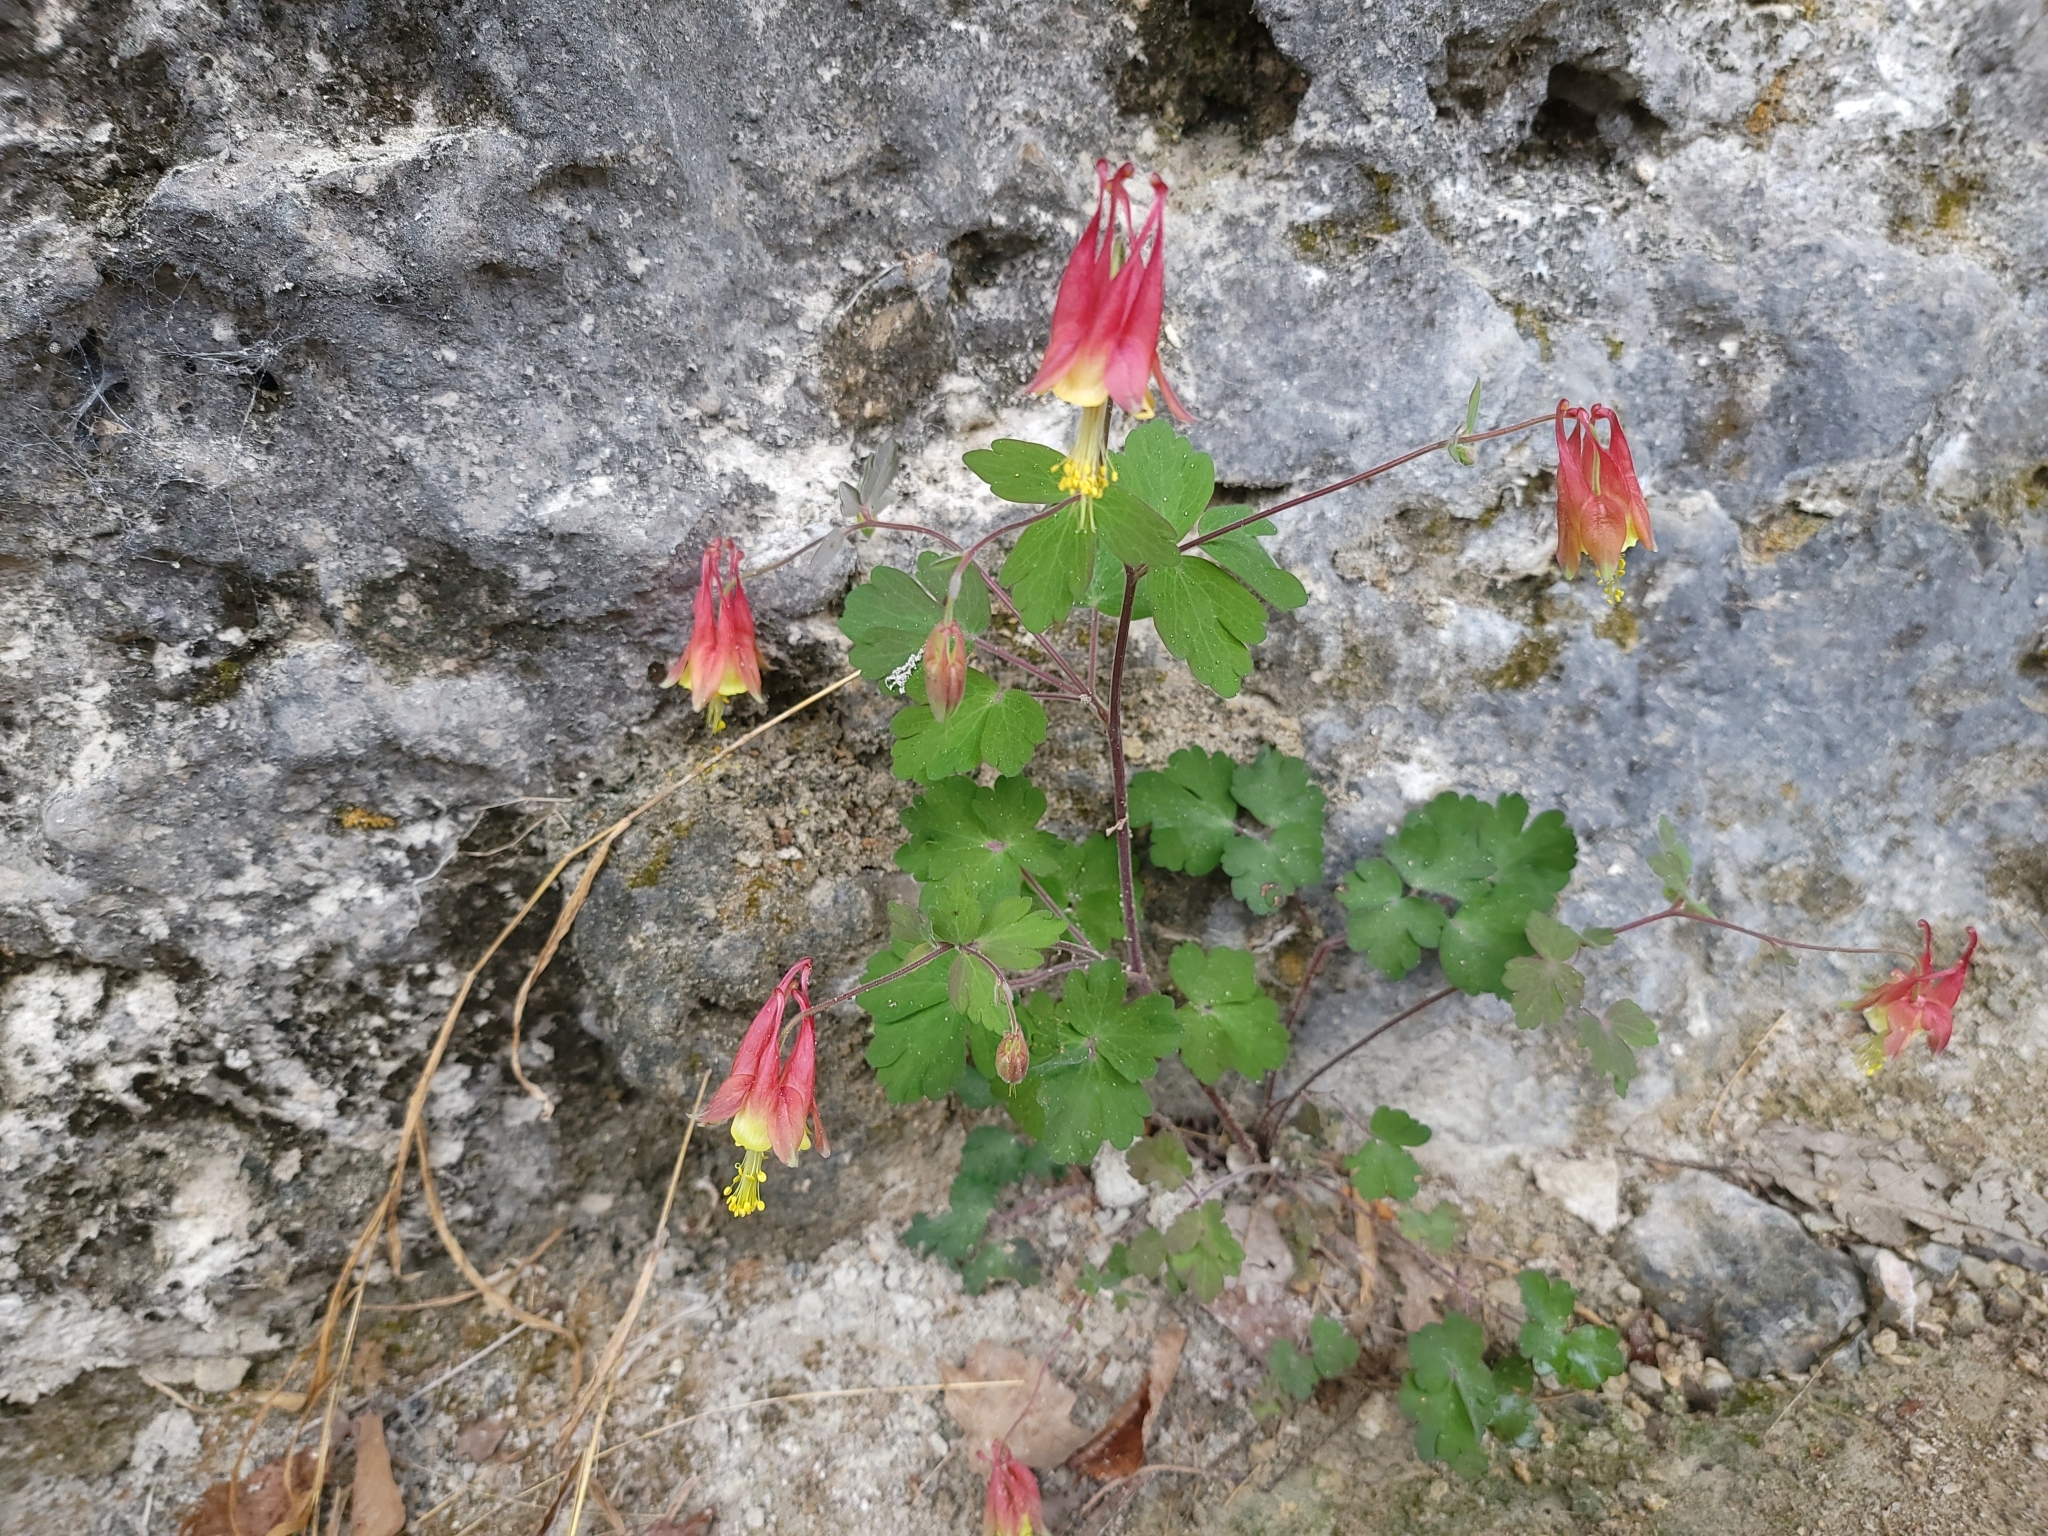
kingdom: Plantae
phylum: Tracheophyta
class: Magnoliopsida
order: Ranunculales
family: Ranunculaceae
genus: Aquilegia
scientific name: Aquilegia canadensis
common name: American columbine
